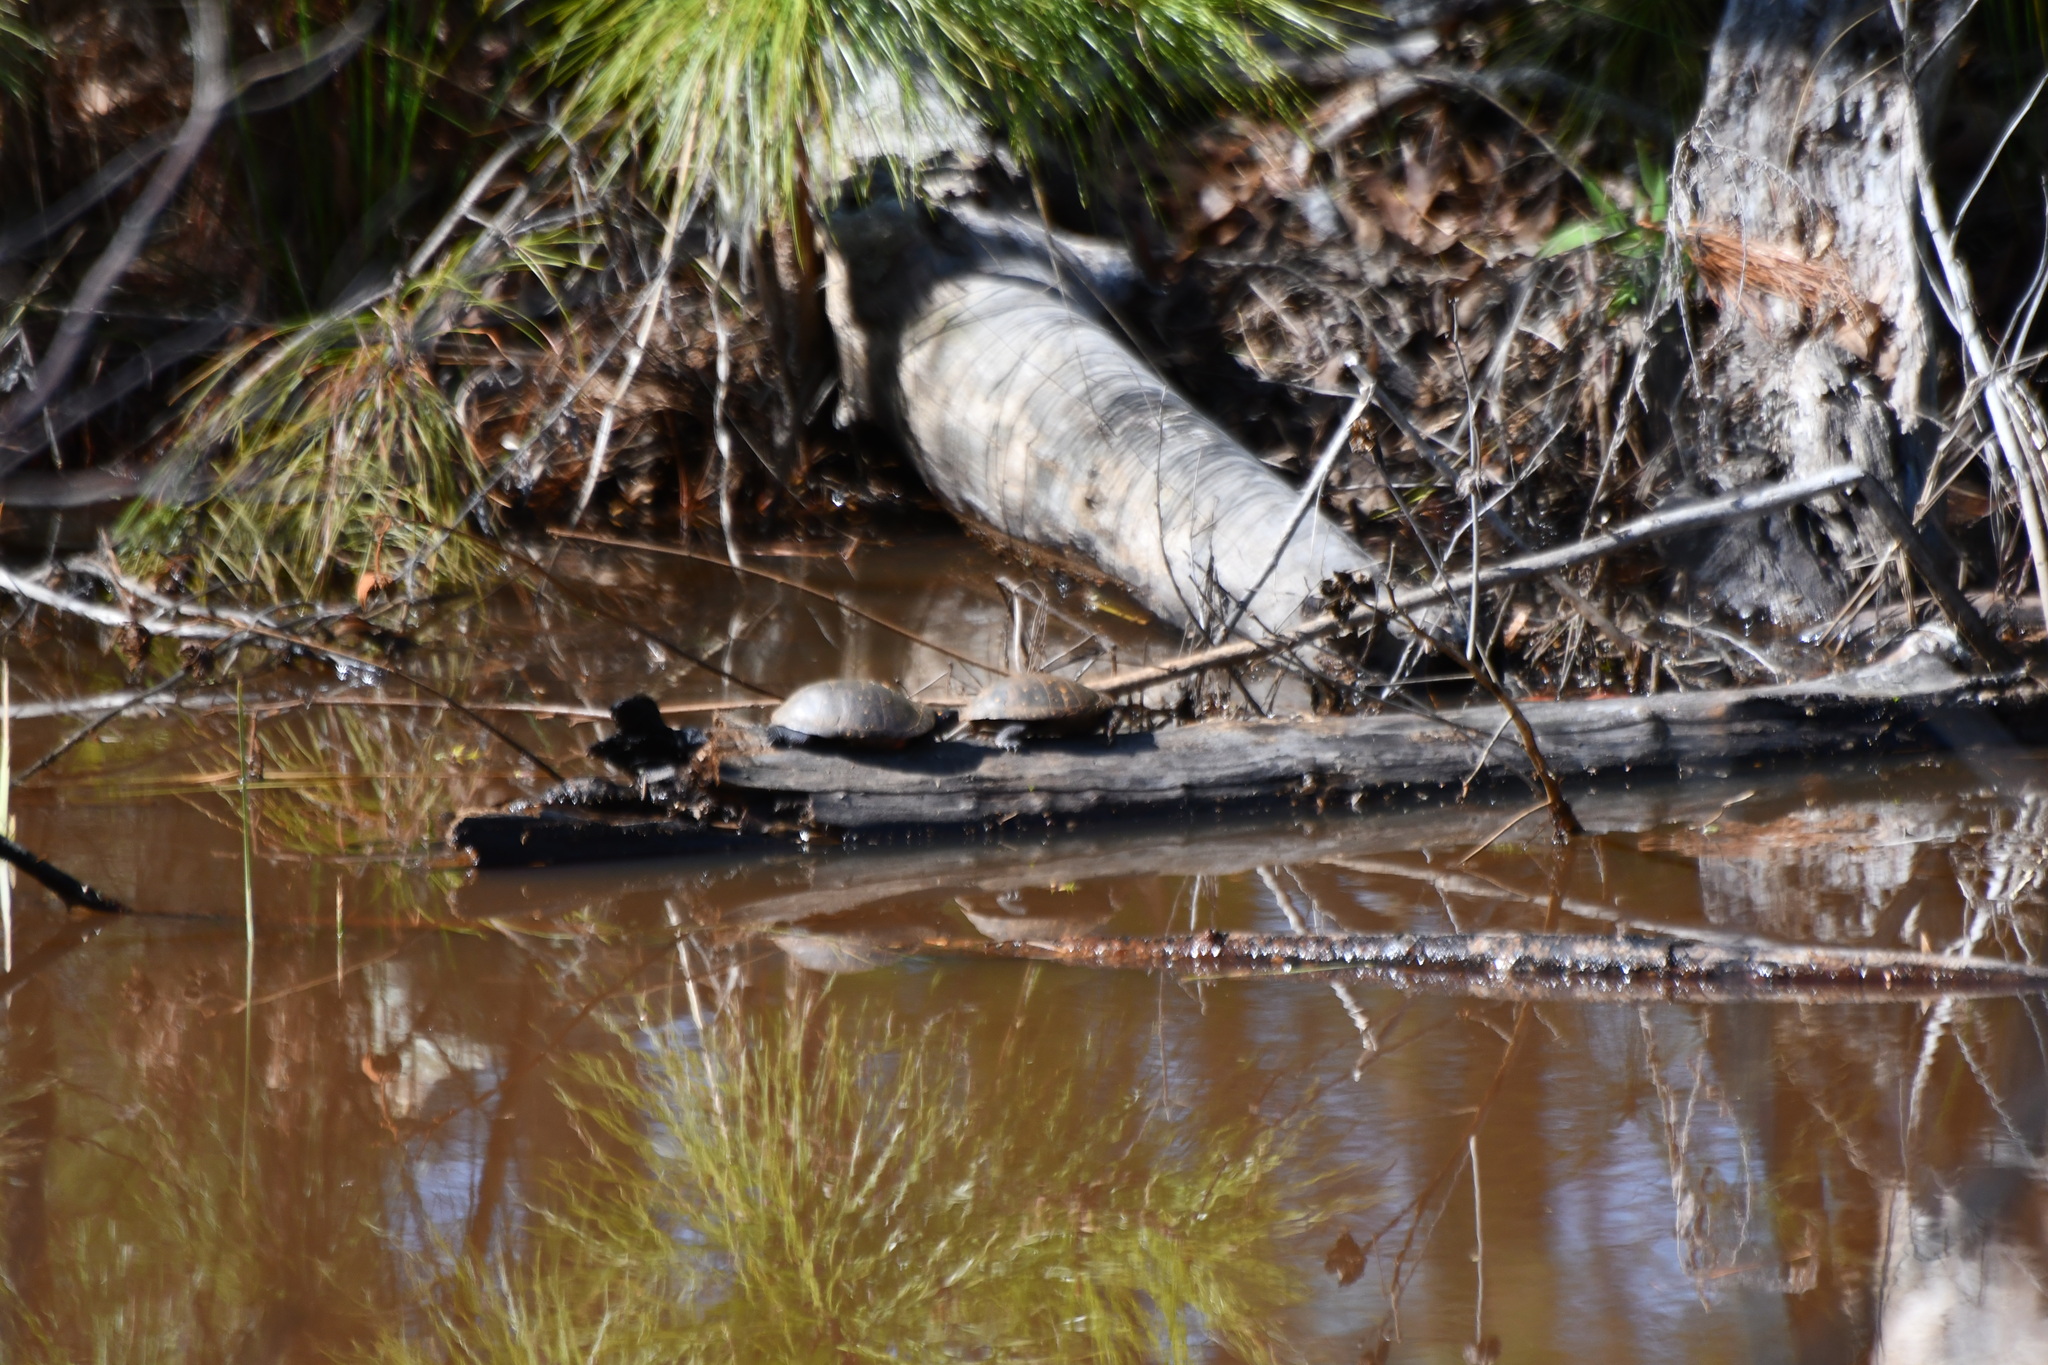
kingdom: Animalia
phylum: Chordata
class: Testudines
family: Emydidae
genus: Clemmys
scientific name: Clemmys guttata
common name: Spotted turtle
